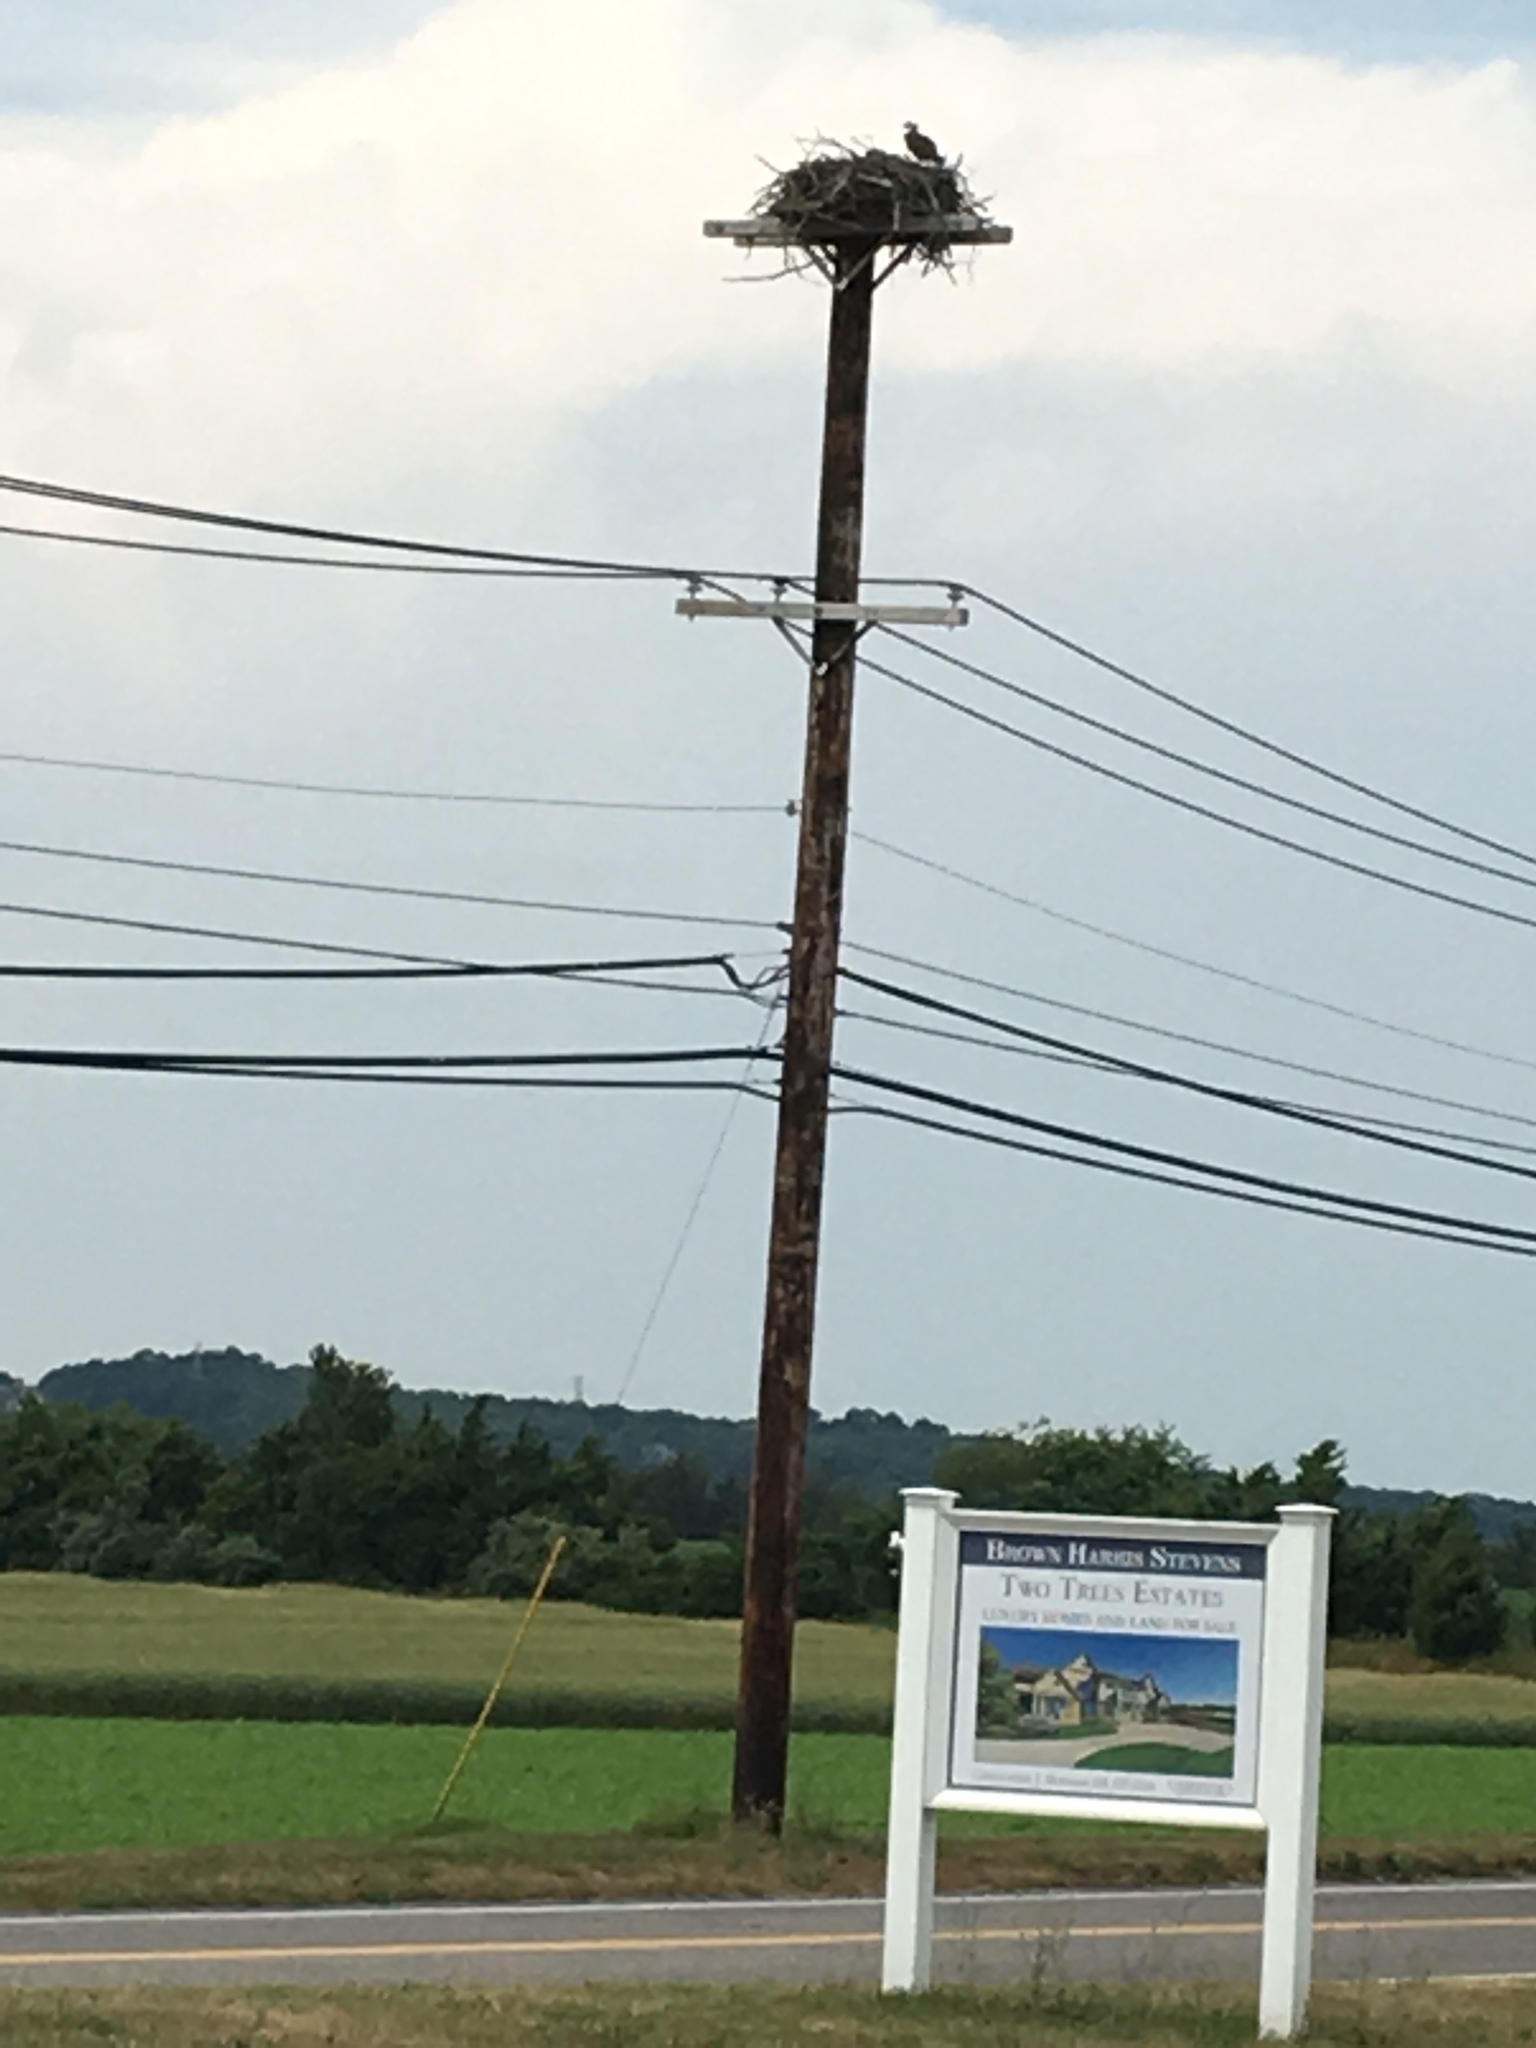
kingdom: Animalia
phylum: Chordata
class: Aves
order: Accipitriformes
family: Pandionidae
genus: Pandion
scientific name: Pandion haliaetus
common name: Osprey
